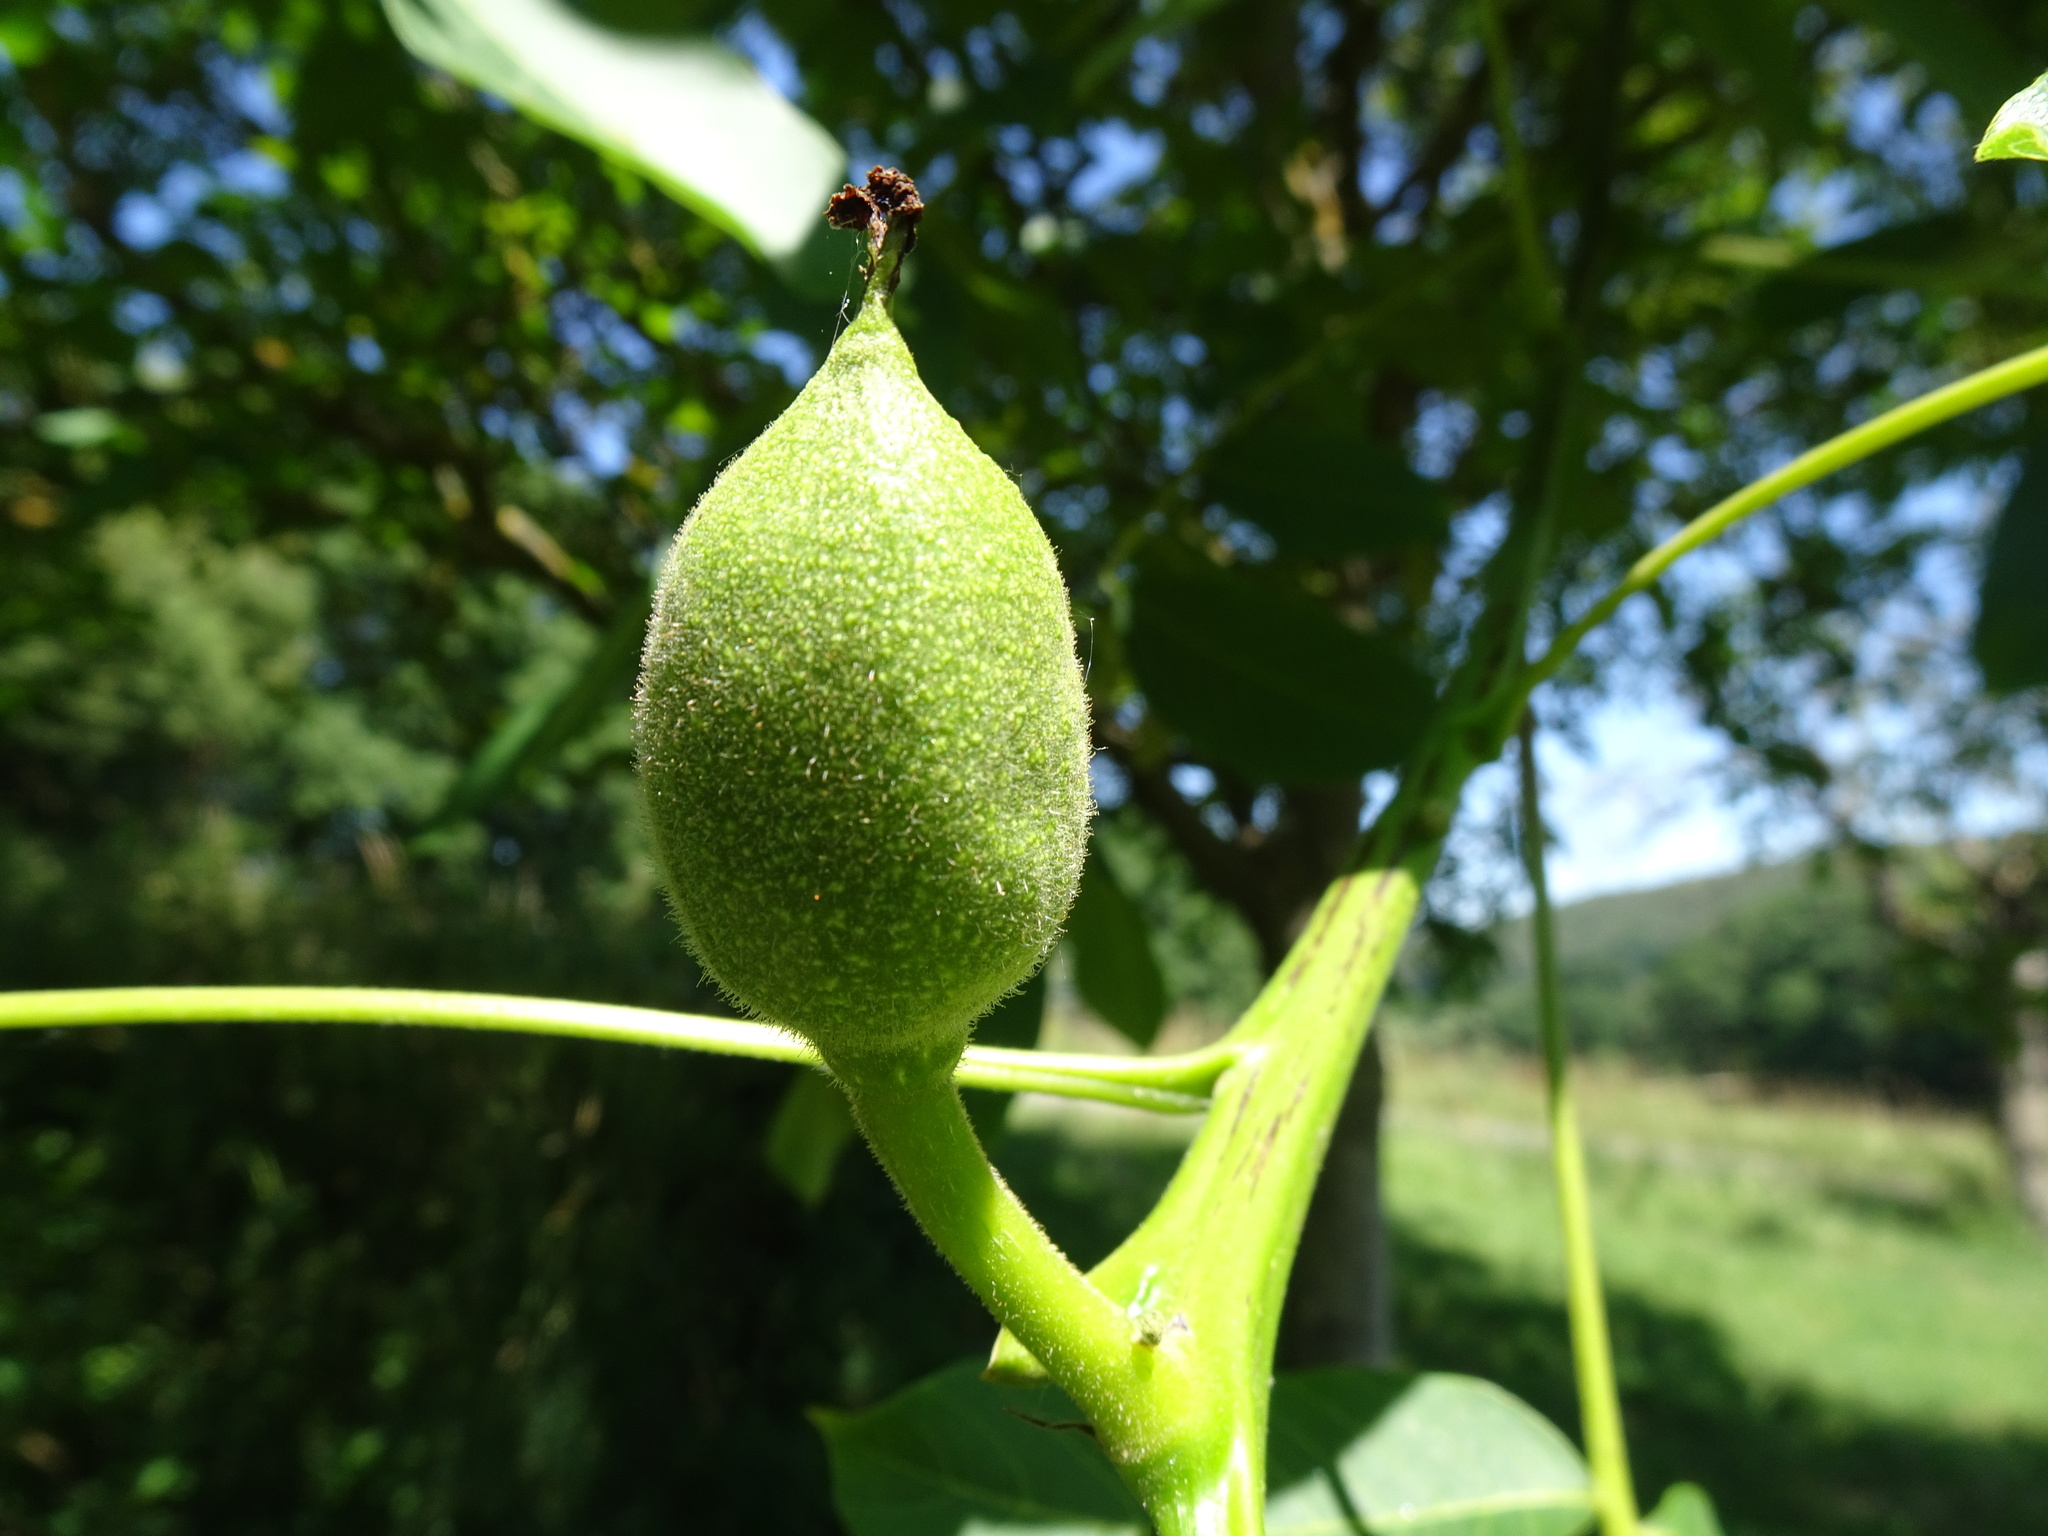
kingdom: Plantae
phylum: Tracheophyta
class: Magnoliopsida
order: Fagales
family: Juglandaceae
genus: Juglans
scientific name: Juglans regia
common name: Walnut
